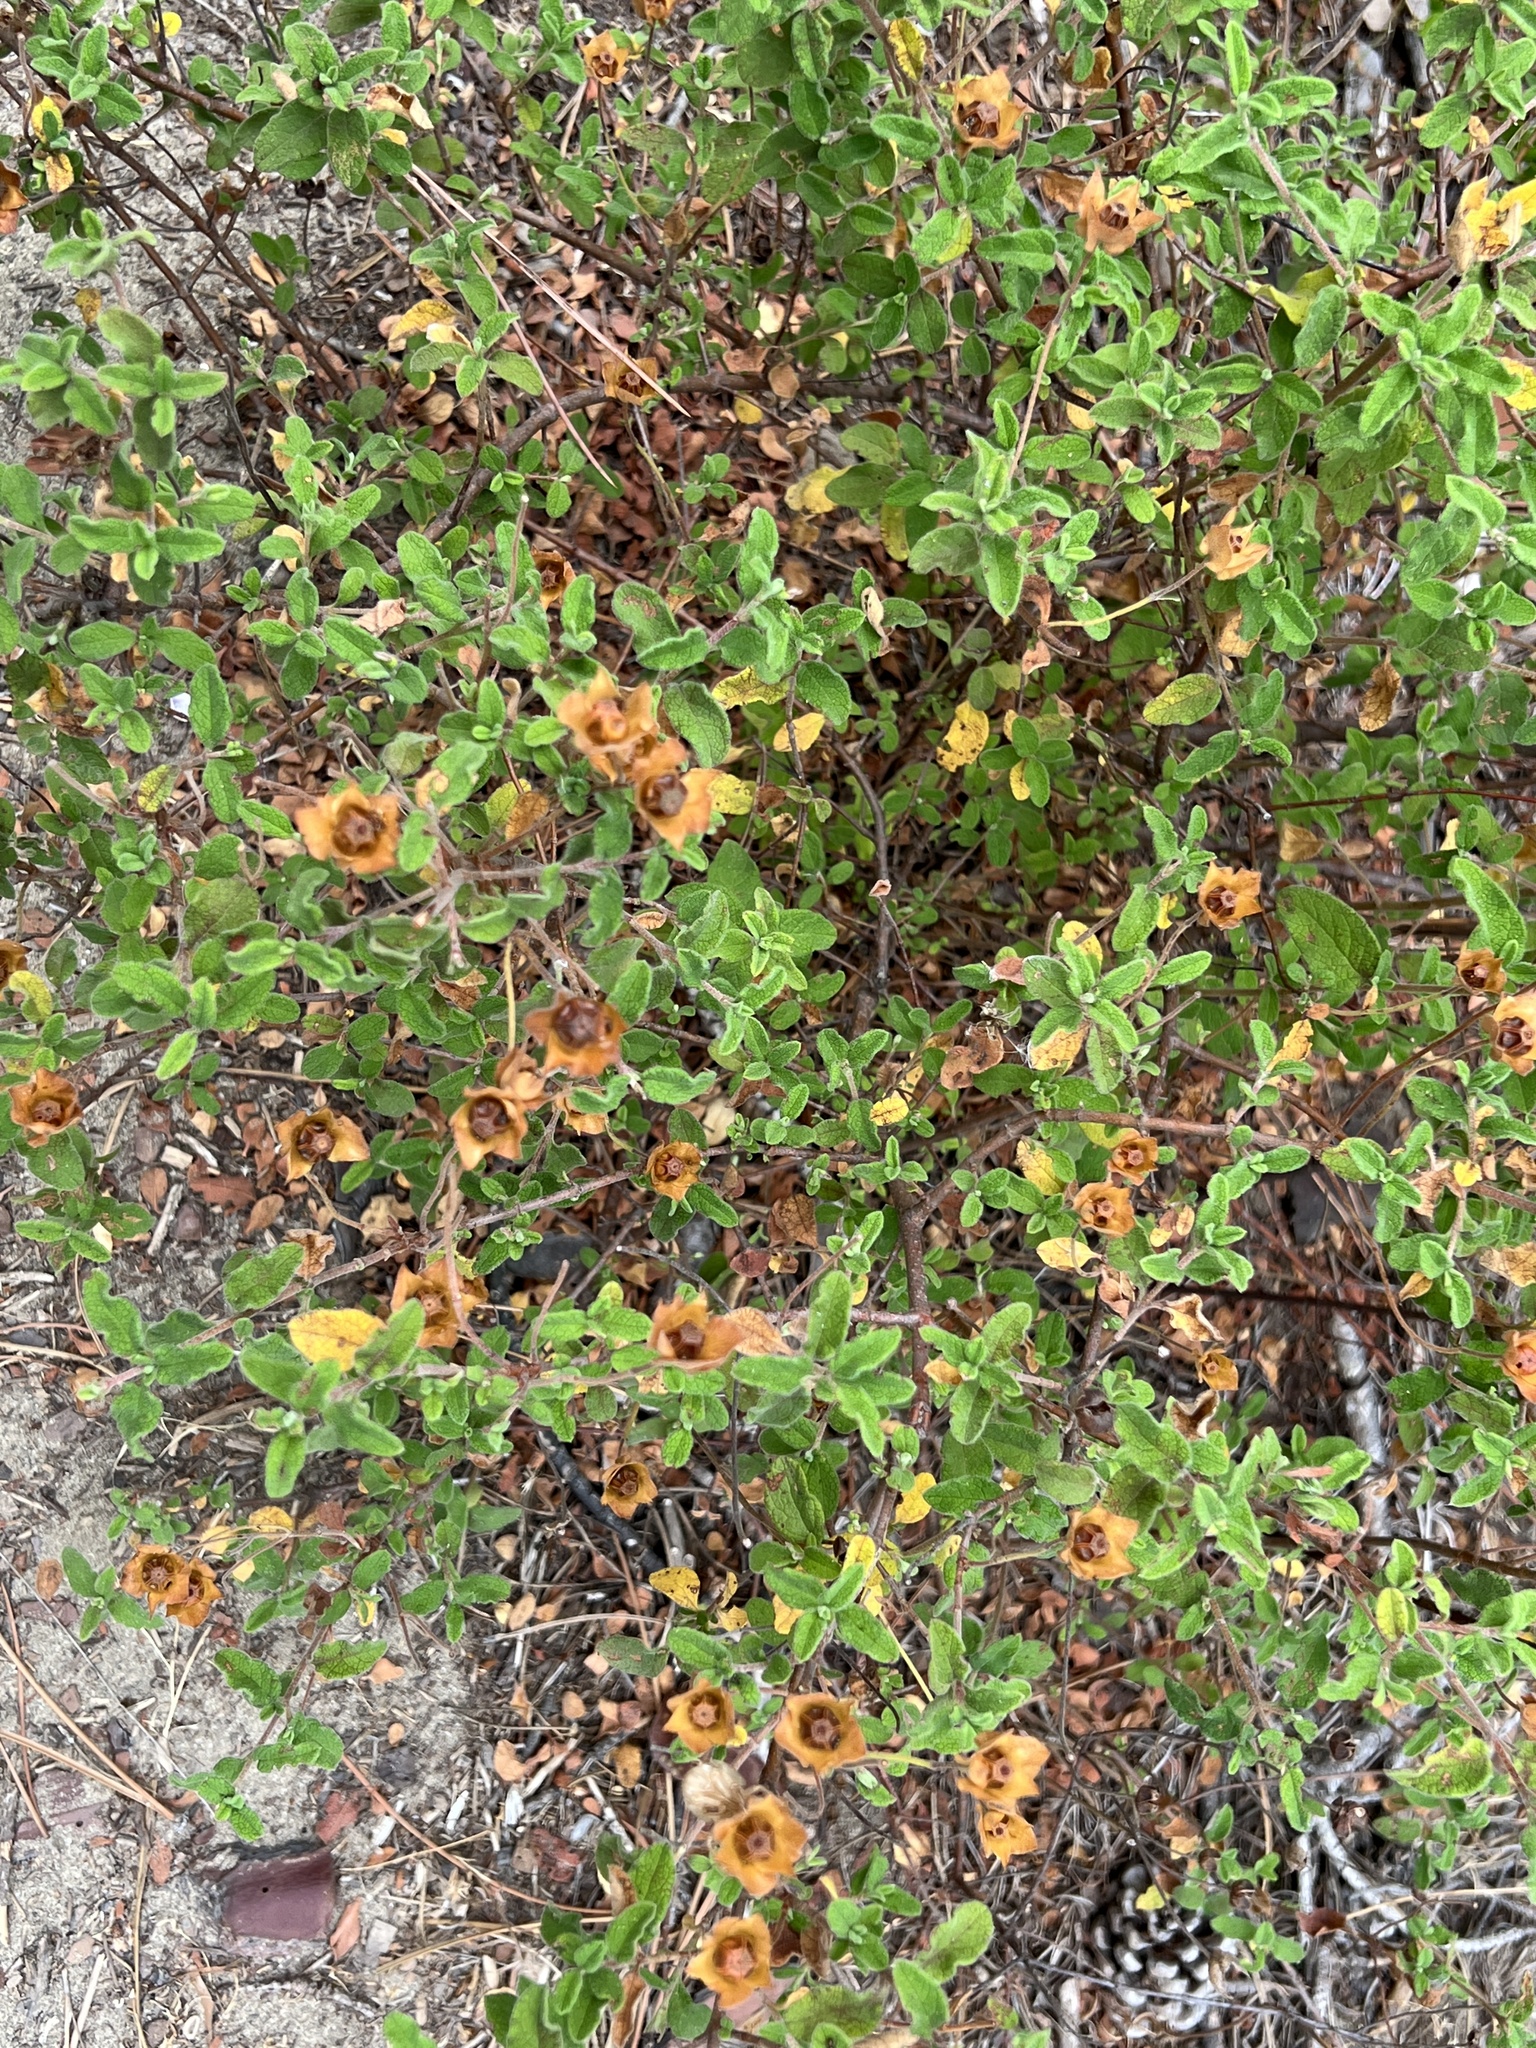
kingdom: Plantae
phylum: Tracheophyta
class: Magnoliopsida
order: Malvales
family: Cistaceae
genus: Cistus
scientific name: Cistus salviifolius
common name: Salvia cistus
